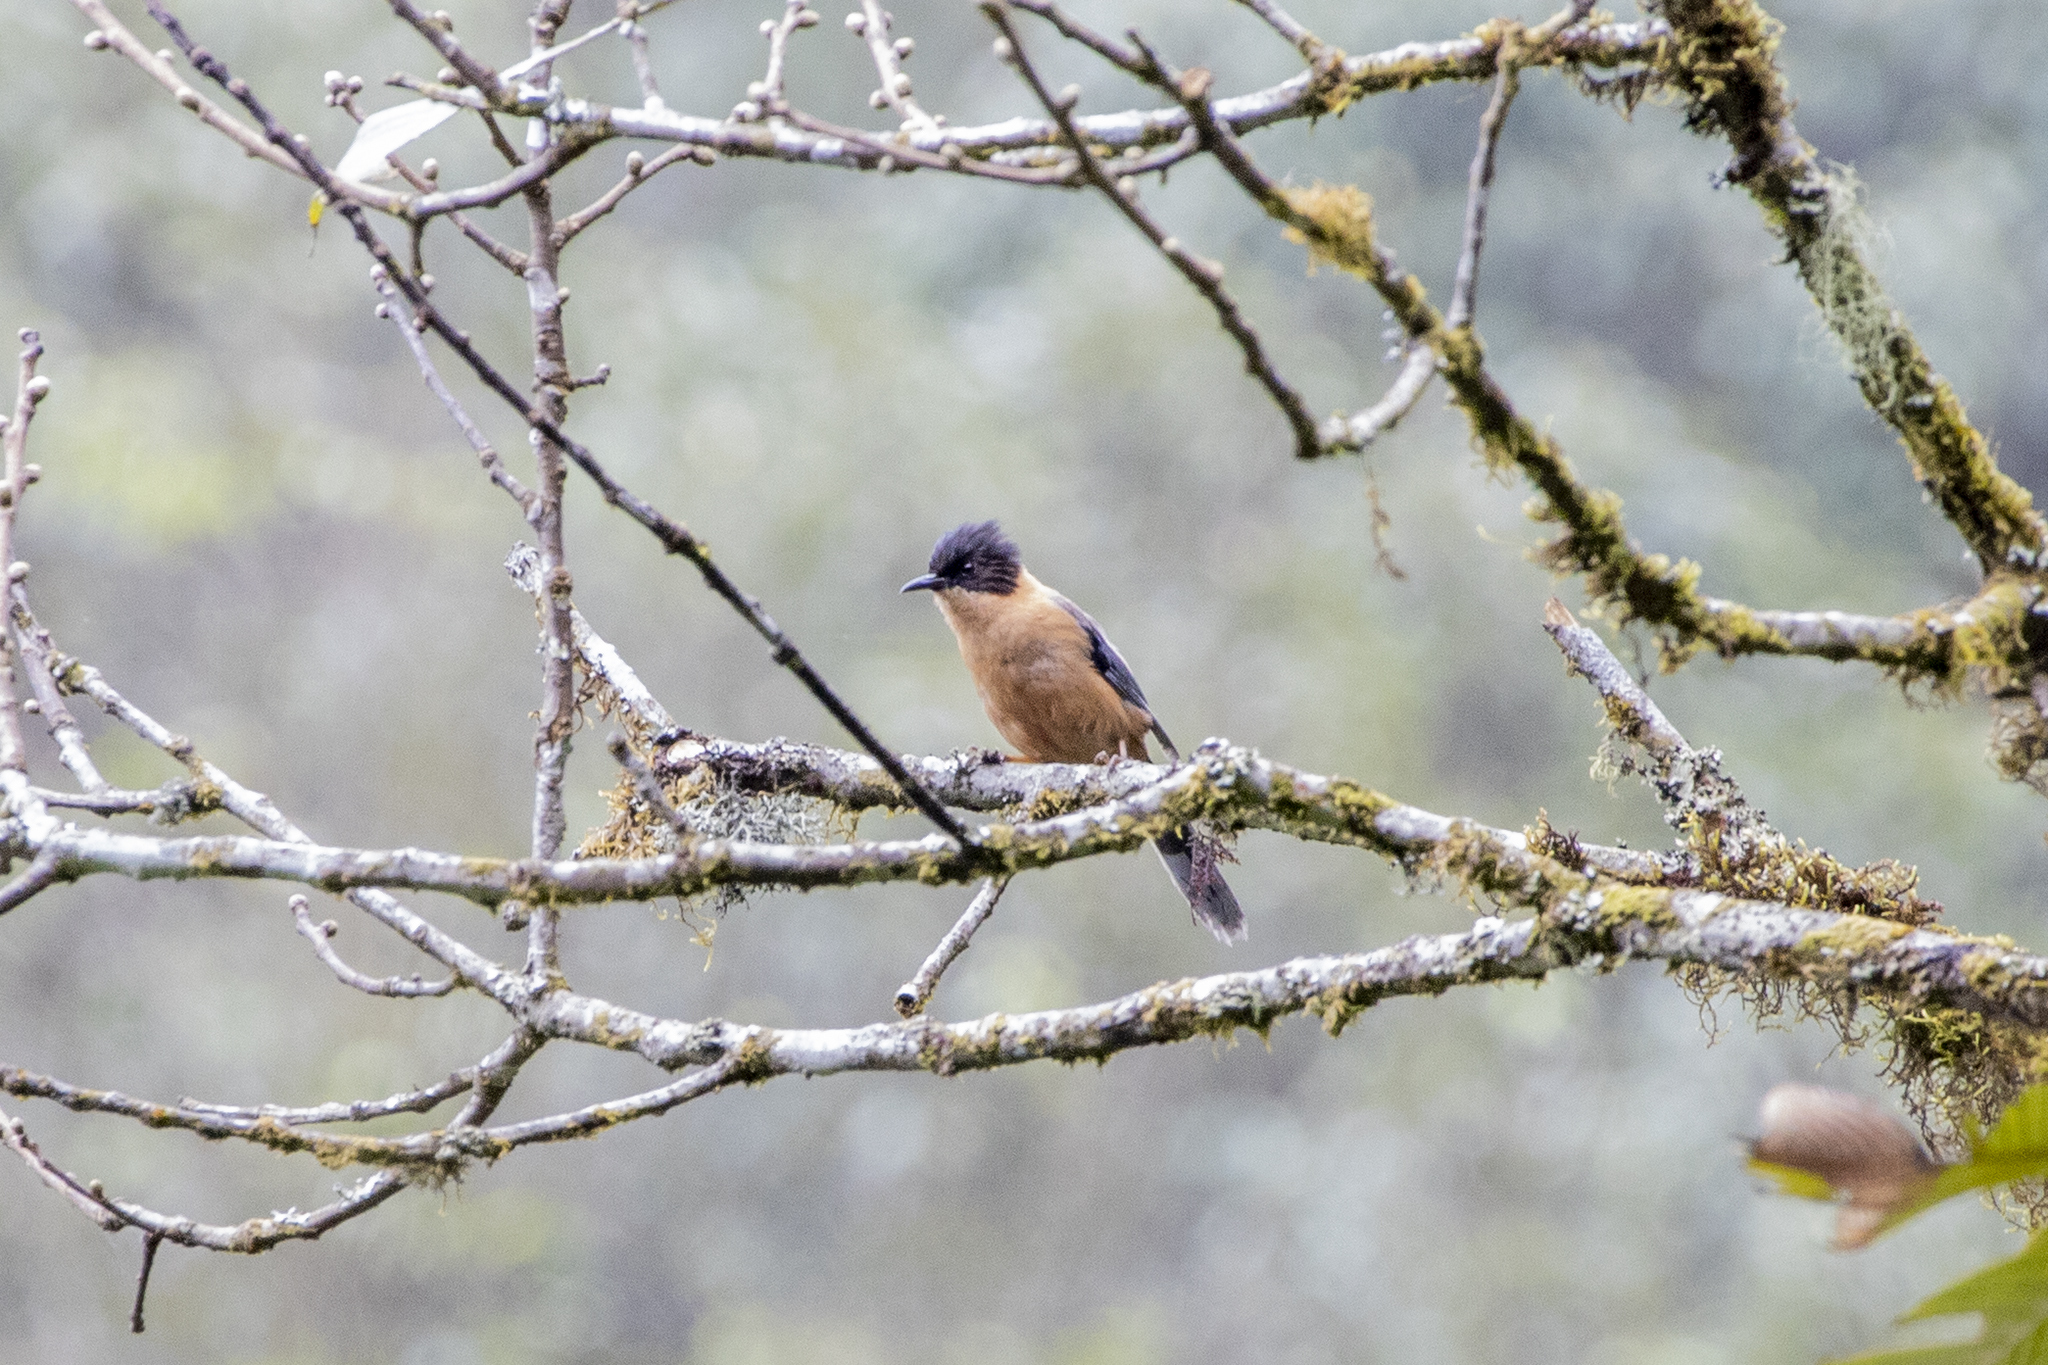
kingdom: Animalia
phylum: Chordata
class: Aves
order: Passeriformes
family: Leiothrichidae
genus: Heterophasia
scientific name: Heterophasia capistrata
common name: Rufous sibia
